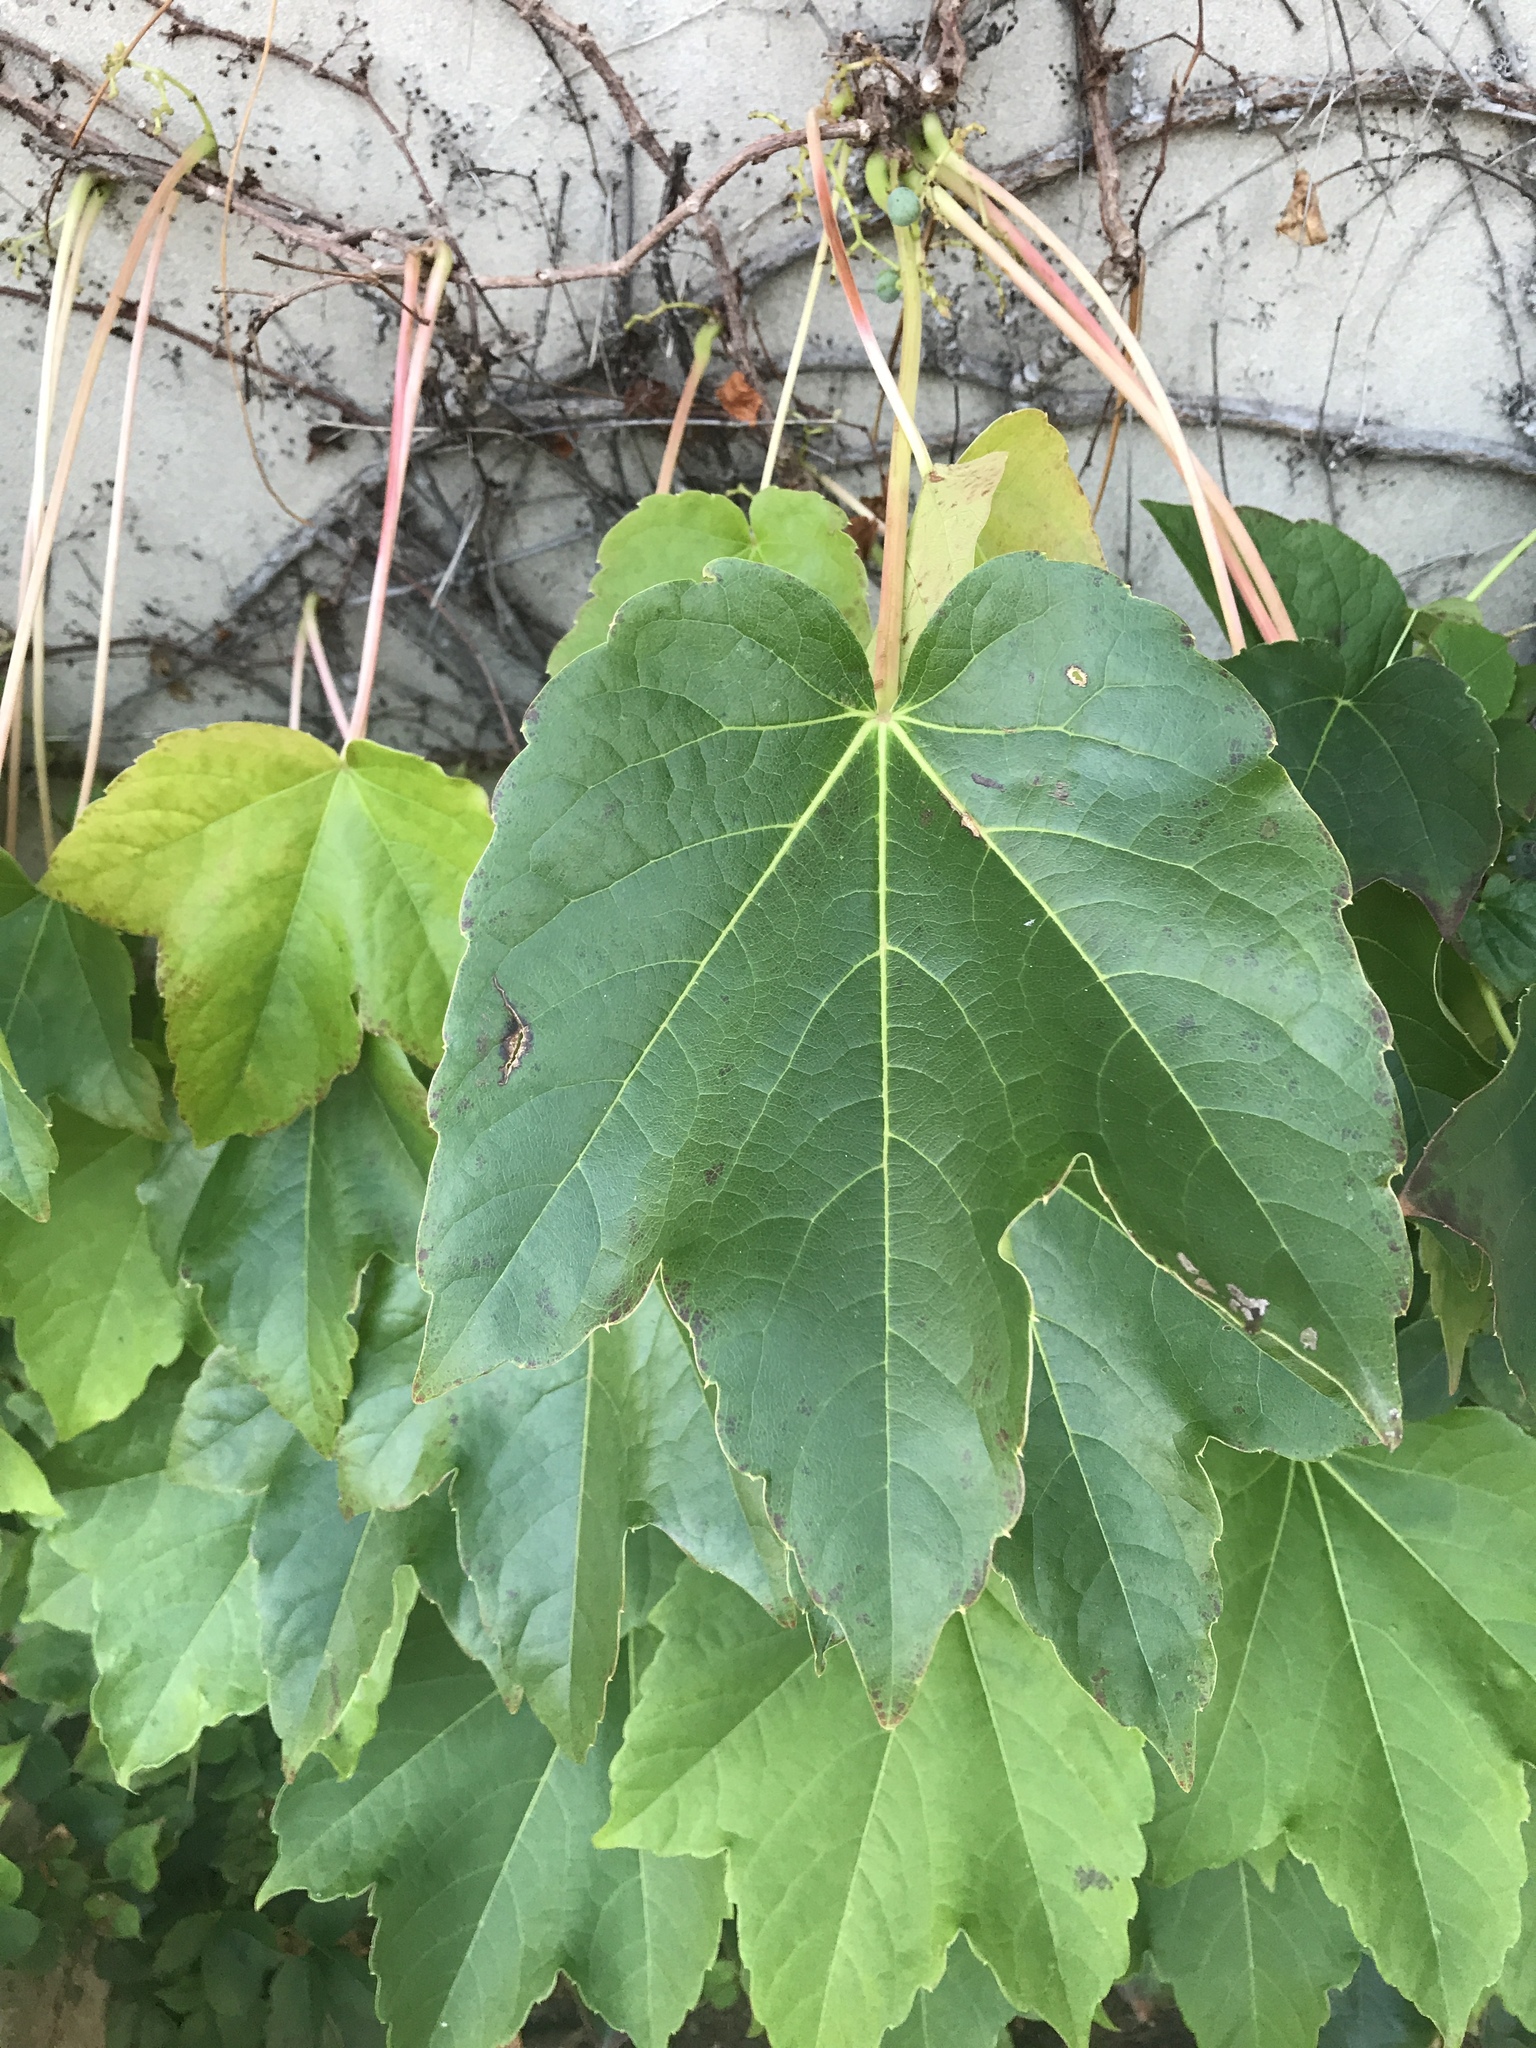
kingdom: Plantae
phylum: Tracheophyta
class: Magnoliopsida
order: Vitales
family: Vitaceae
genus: Parthenocissus
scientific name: Parthenocissus tricuspidata
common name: Boston ivy
